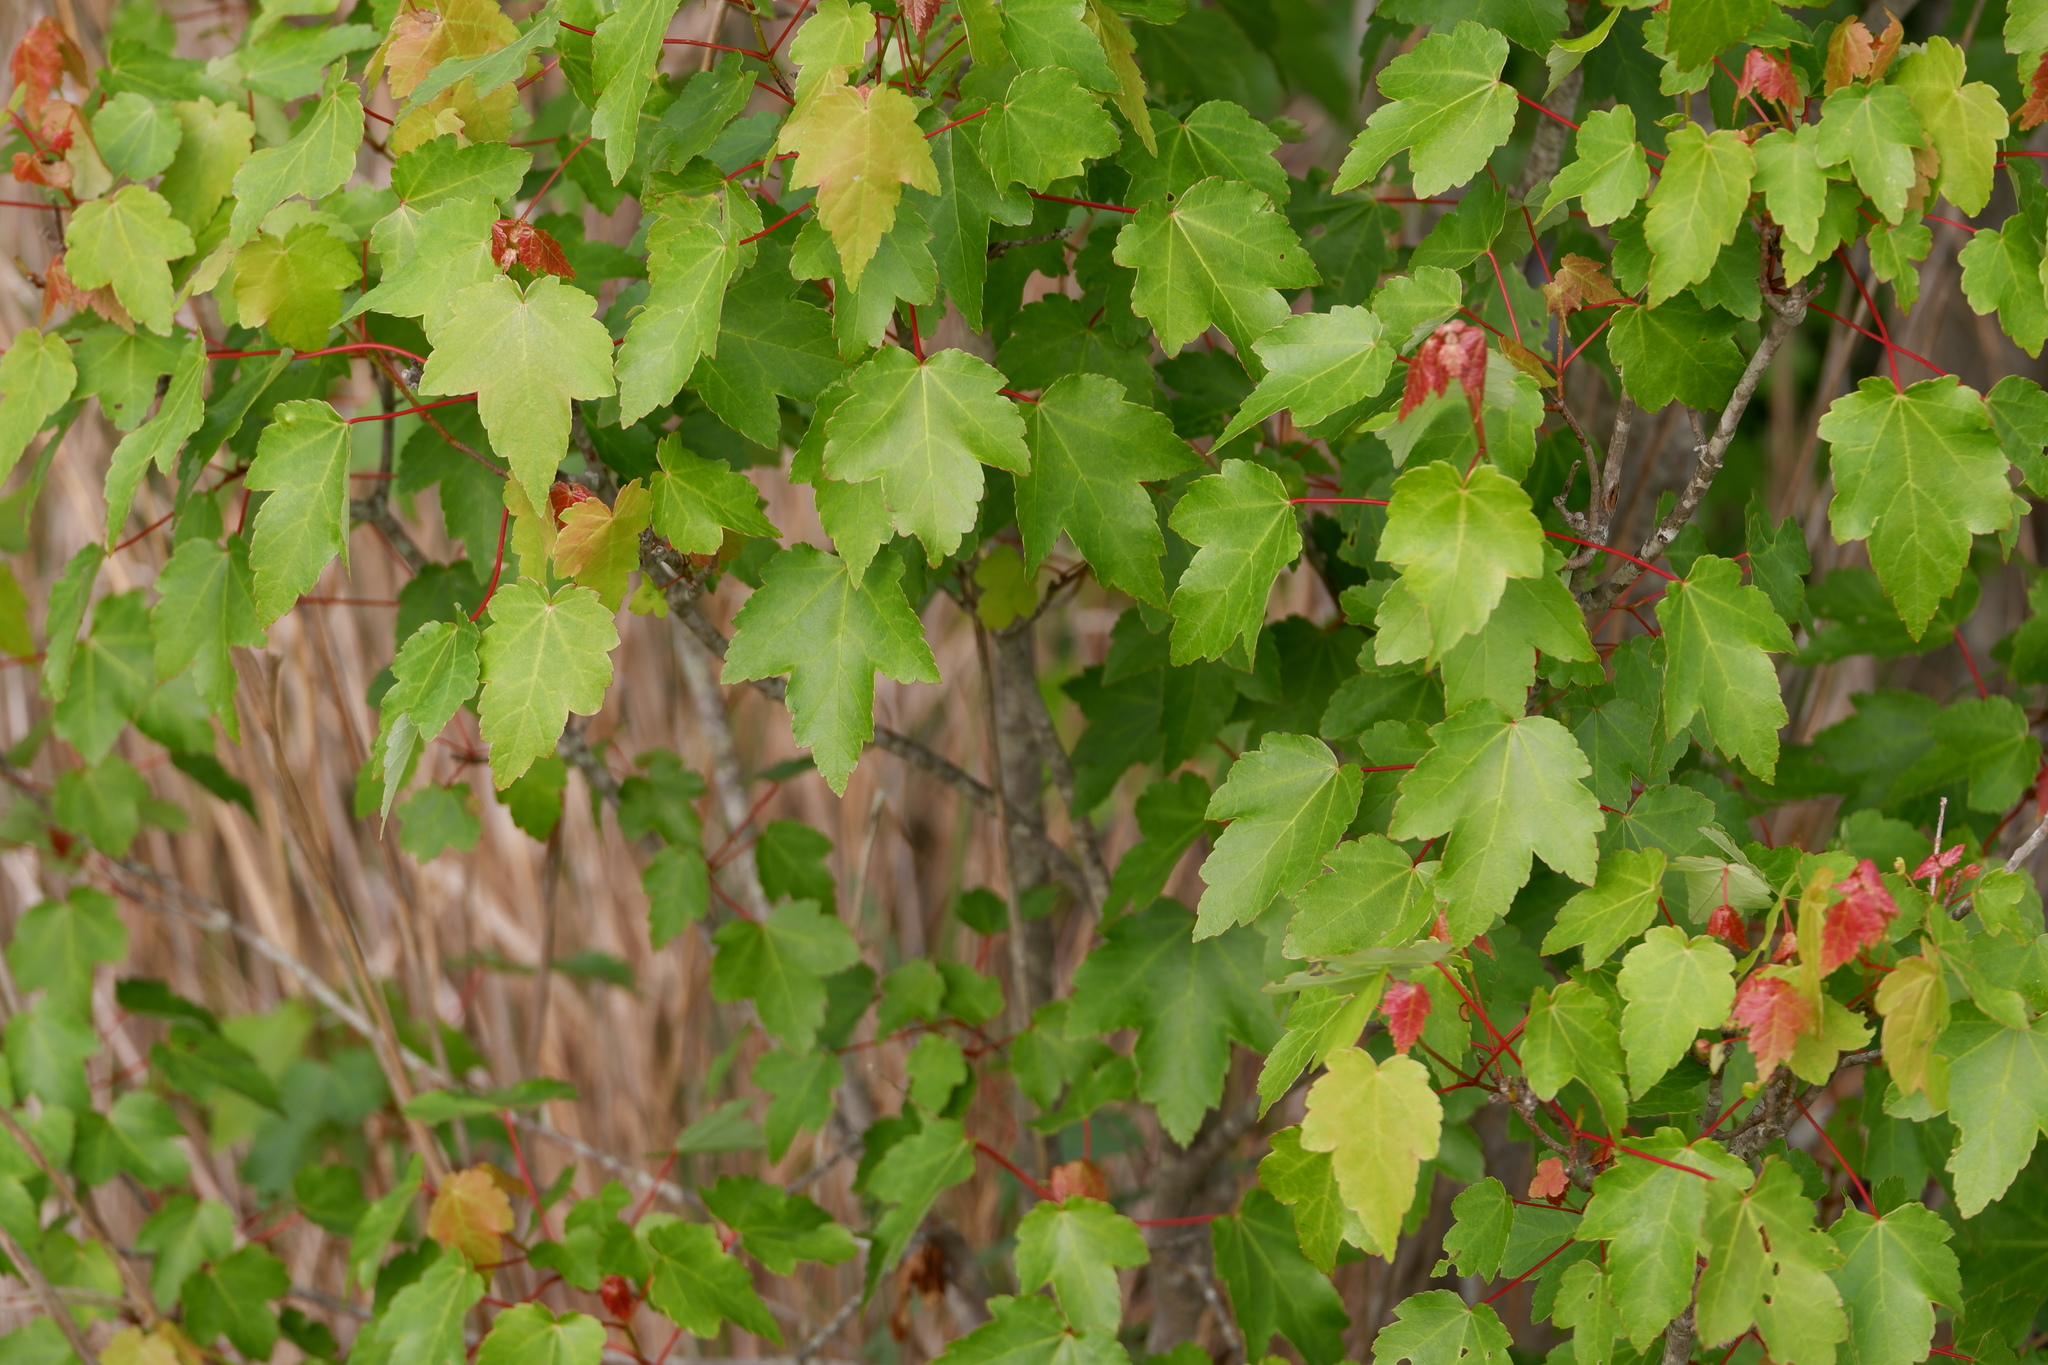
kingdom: Plantae
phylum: Tracheophyta
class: Magnoliopsida
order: Sapindales
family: Sapindaceae
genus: Acer
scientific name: Acer rubrum
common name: Red maple
